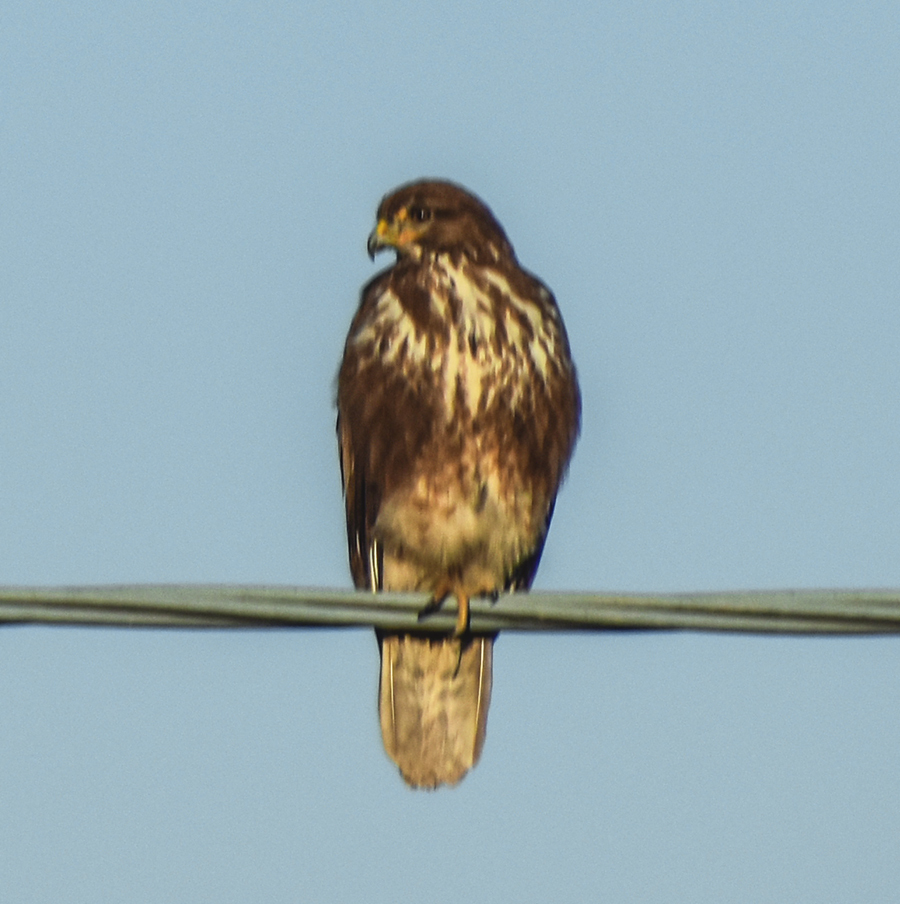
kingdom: Animalia
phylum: Chordata
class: Aves
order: Accipitriformes
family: Accipitridae
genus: Buteo
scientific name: Buteo buteo
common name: Common buzzard
